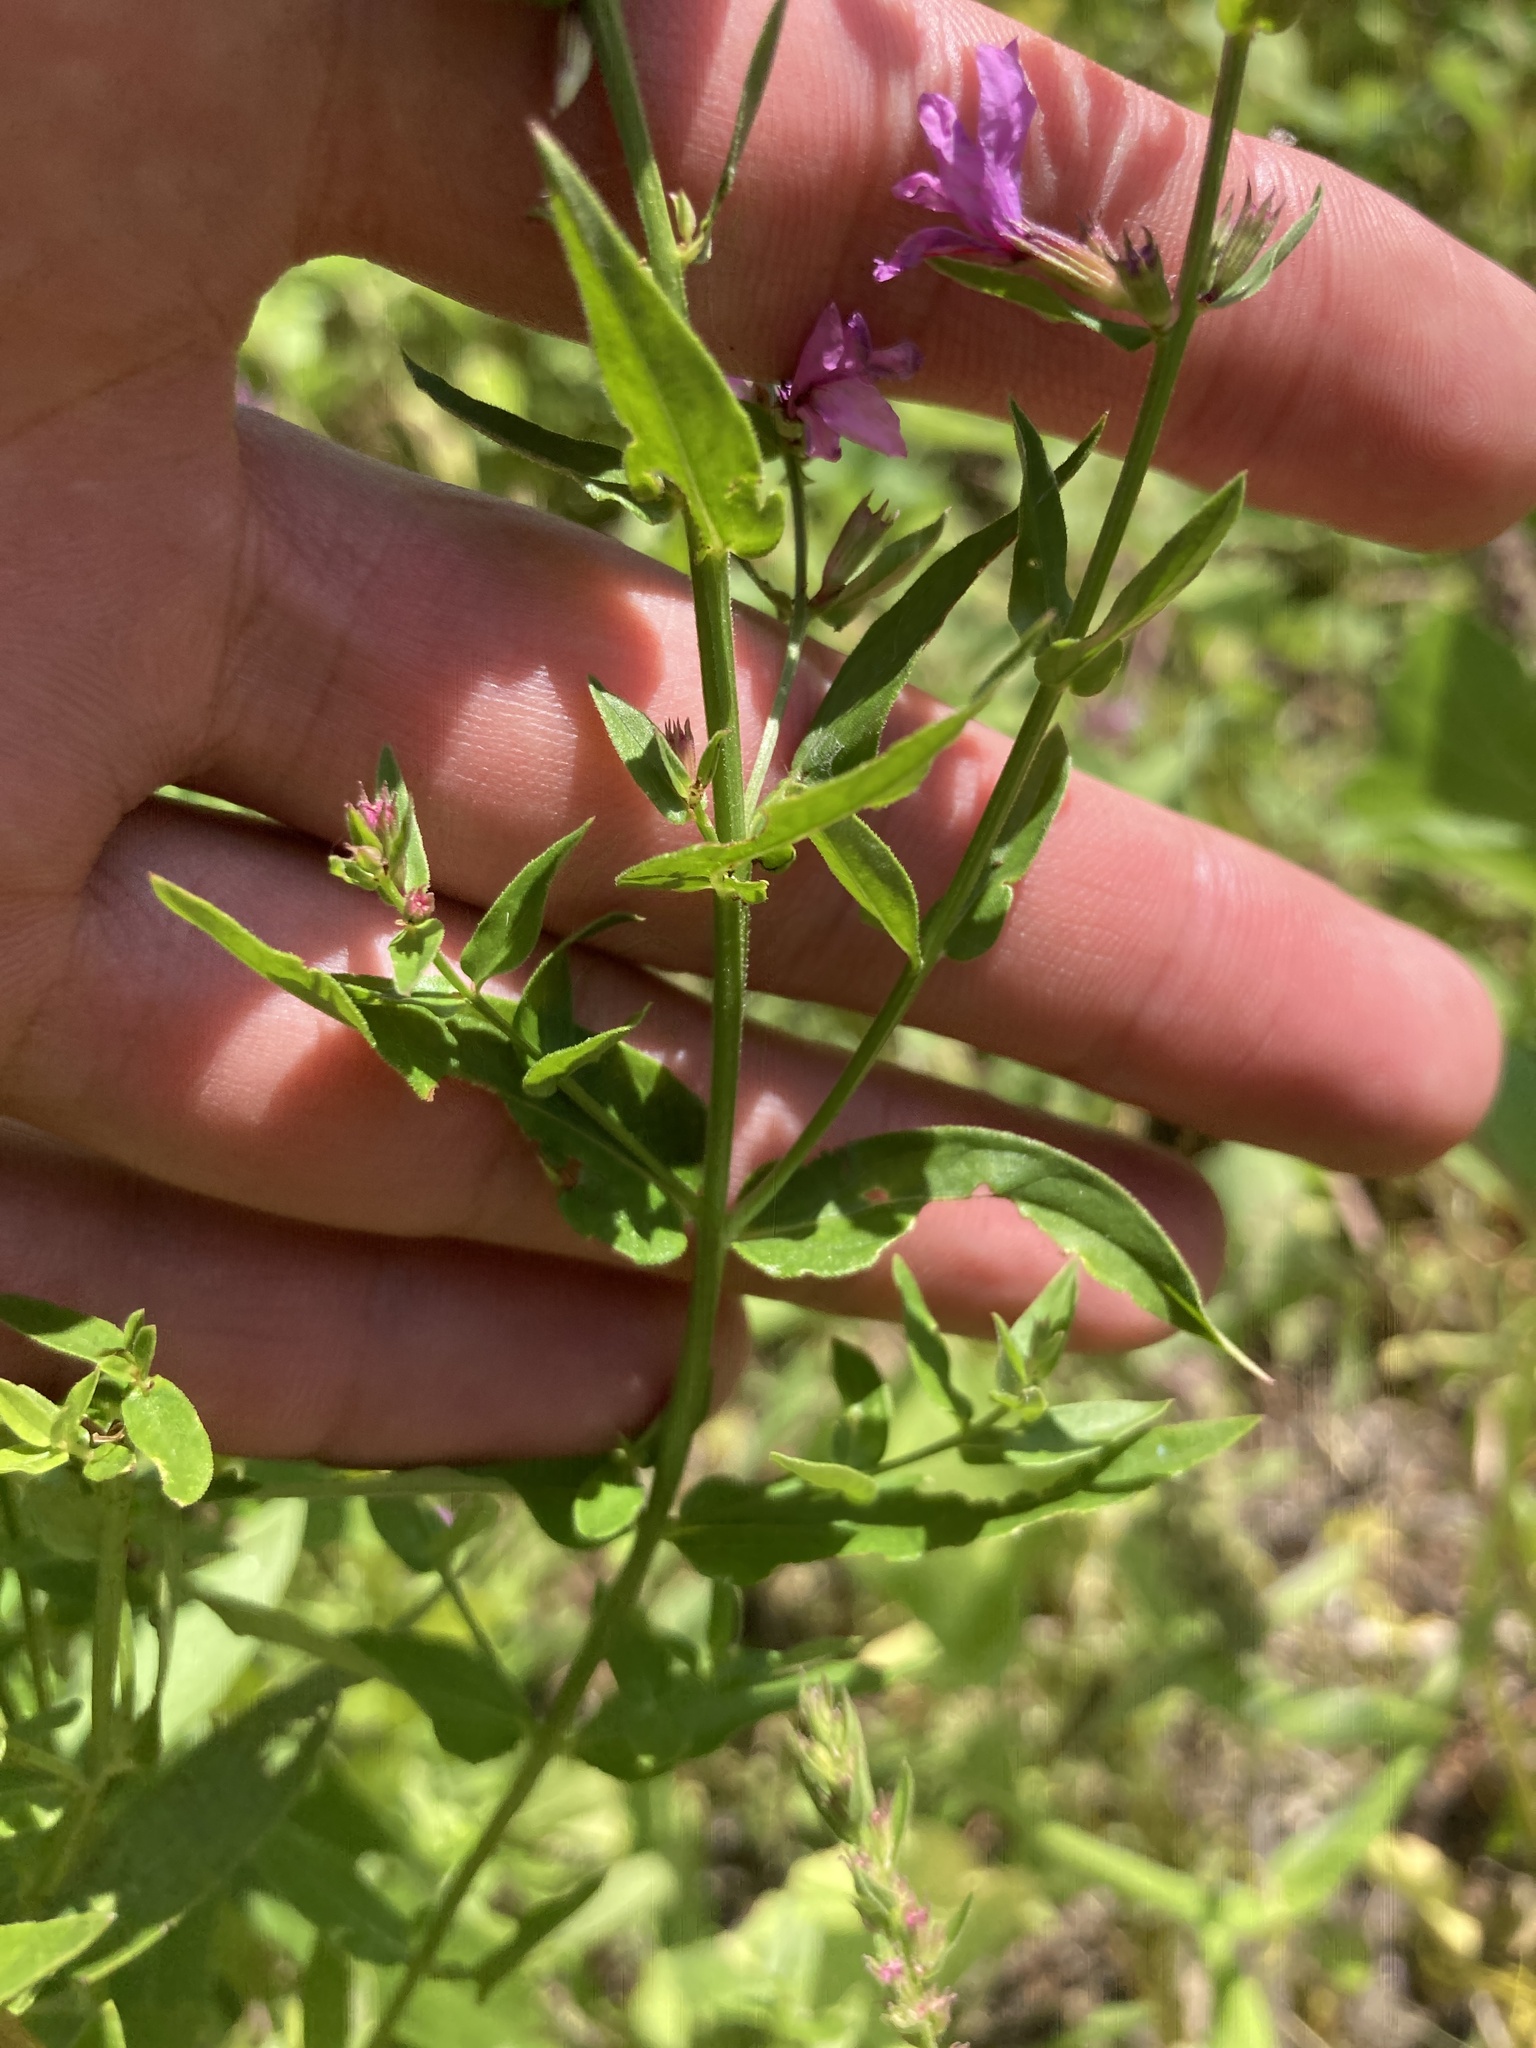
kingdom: Plantae
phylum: Tracheophyta
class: Magnoliopsida
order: Myrtales
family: Lythraceae
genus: Lythrum
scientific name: Lythrum salicaria
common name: Purple loosestrife
